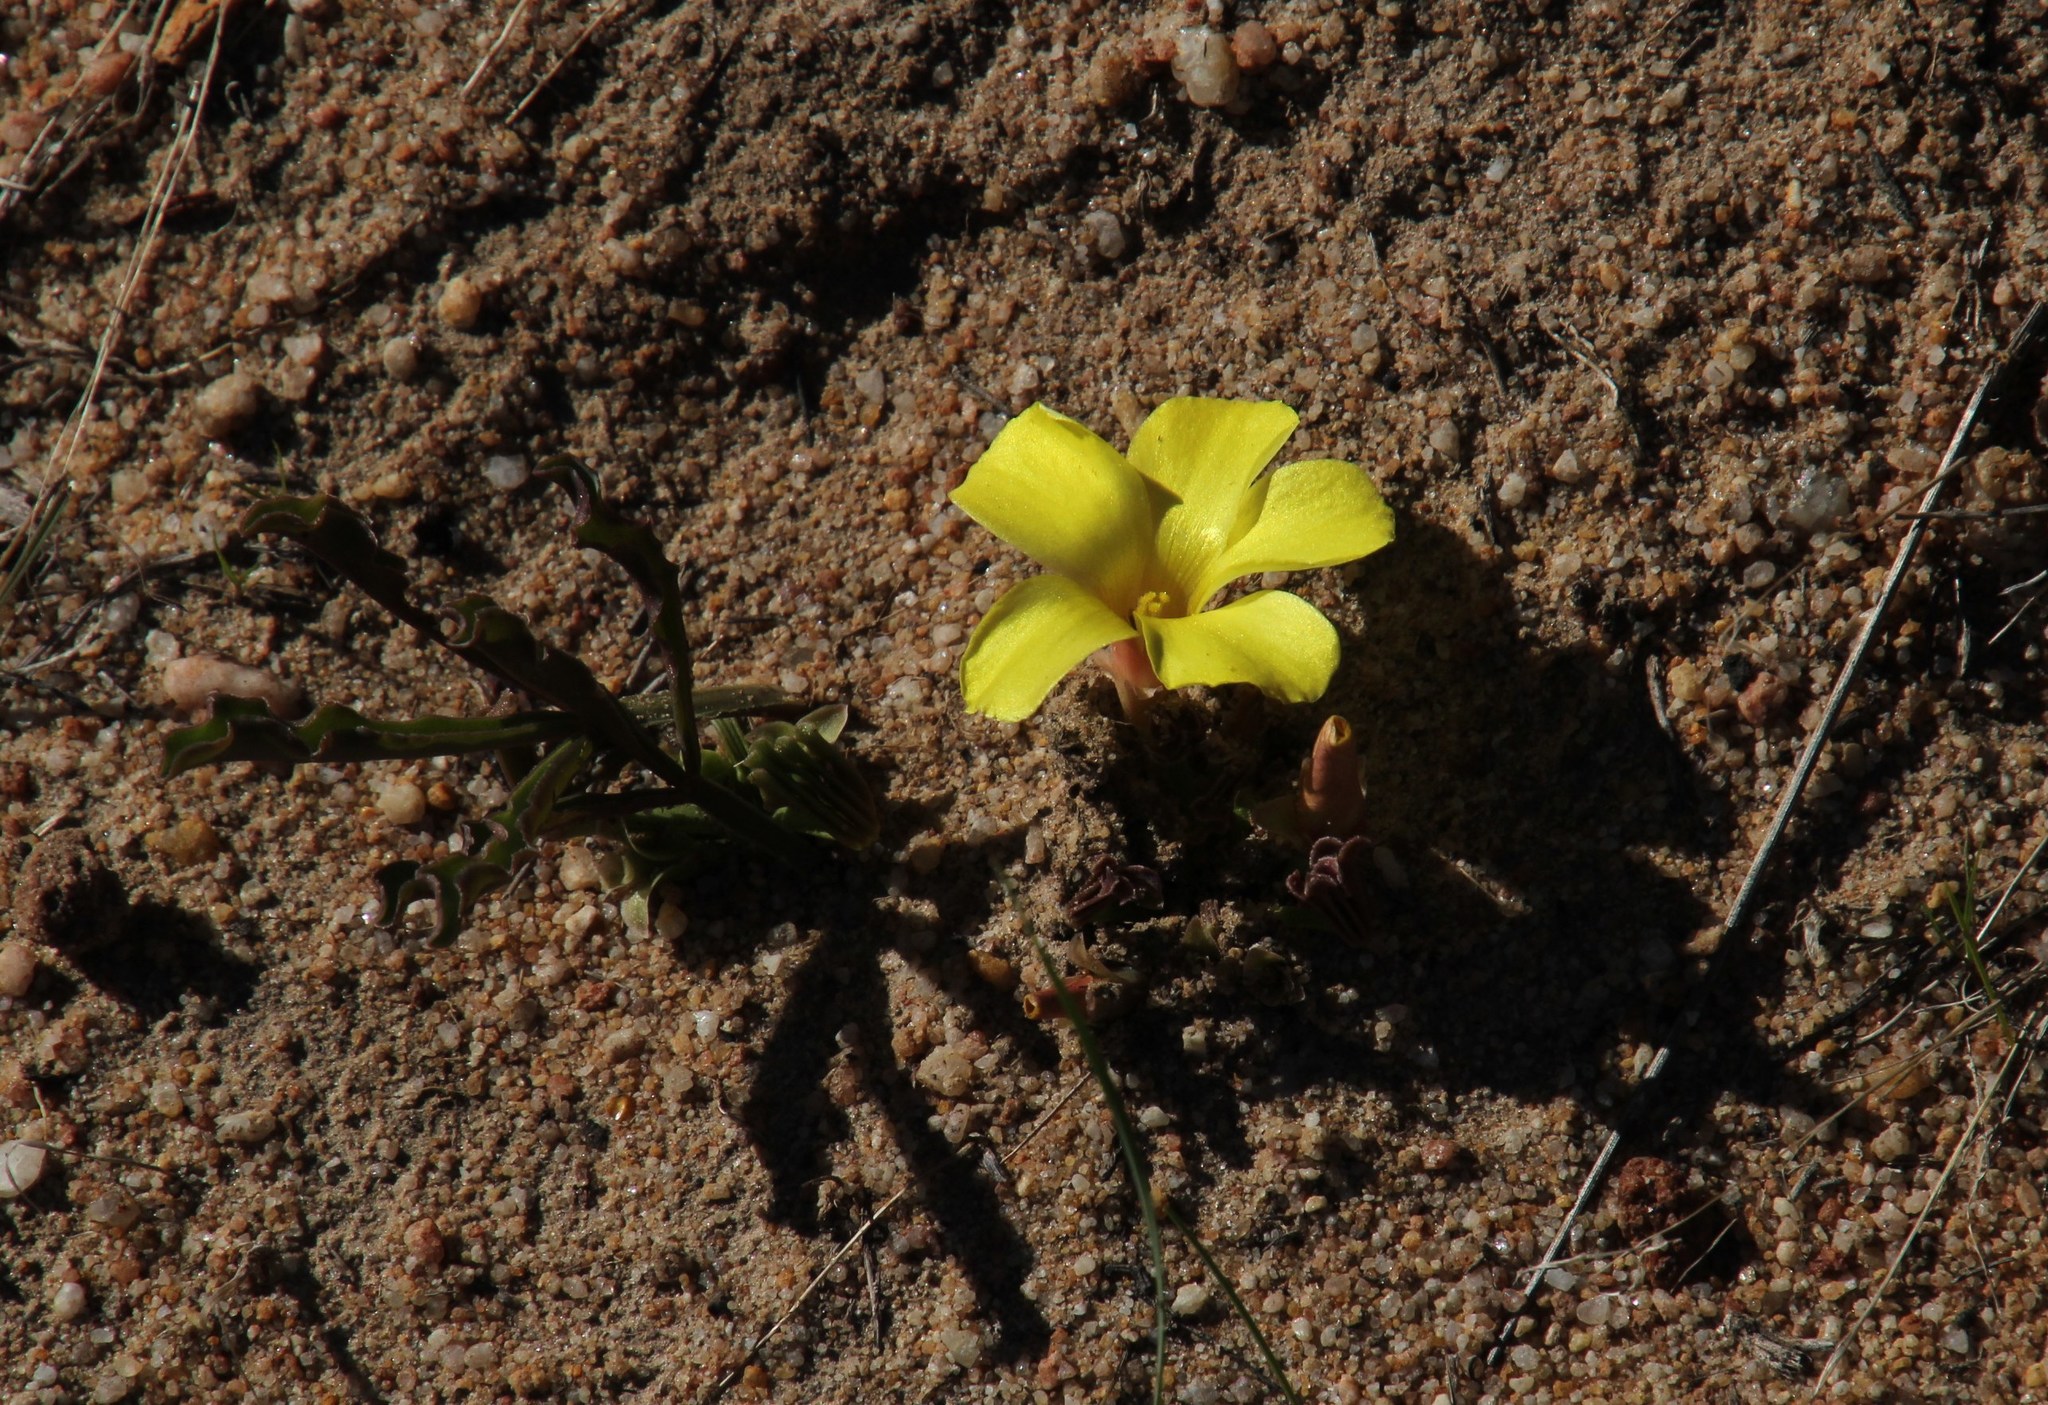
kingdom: Plantae
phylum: Tracheophyta
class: Magnoliopsida
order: Oxalidales
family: Oxalidaceae
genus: Oxalis
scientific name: Oxalis flava
